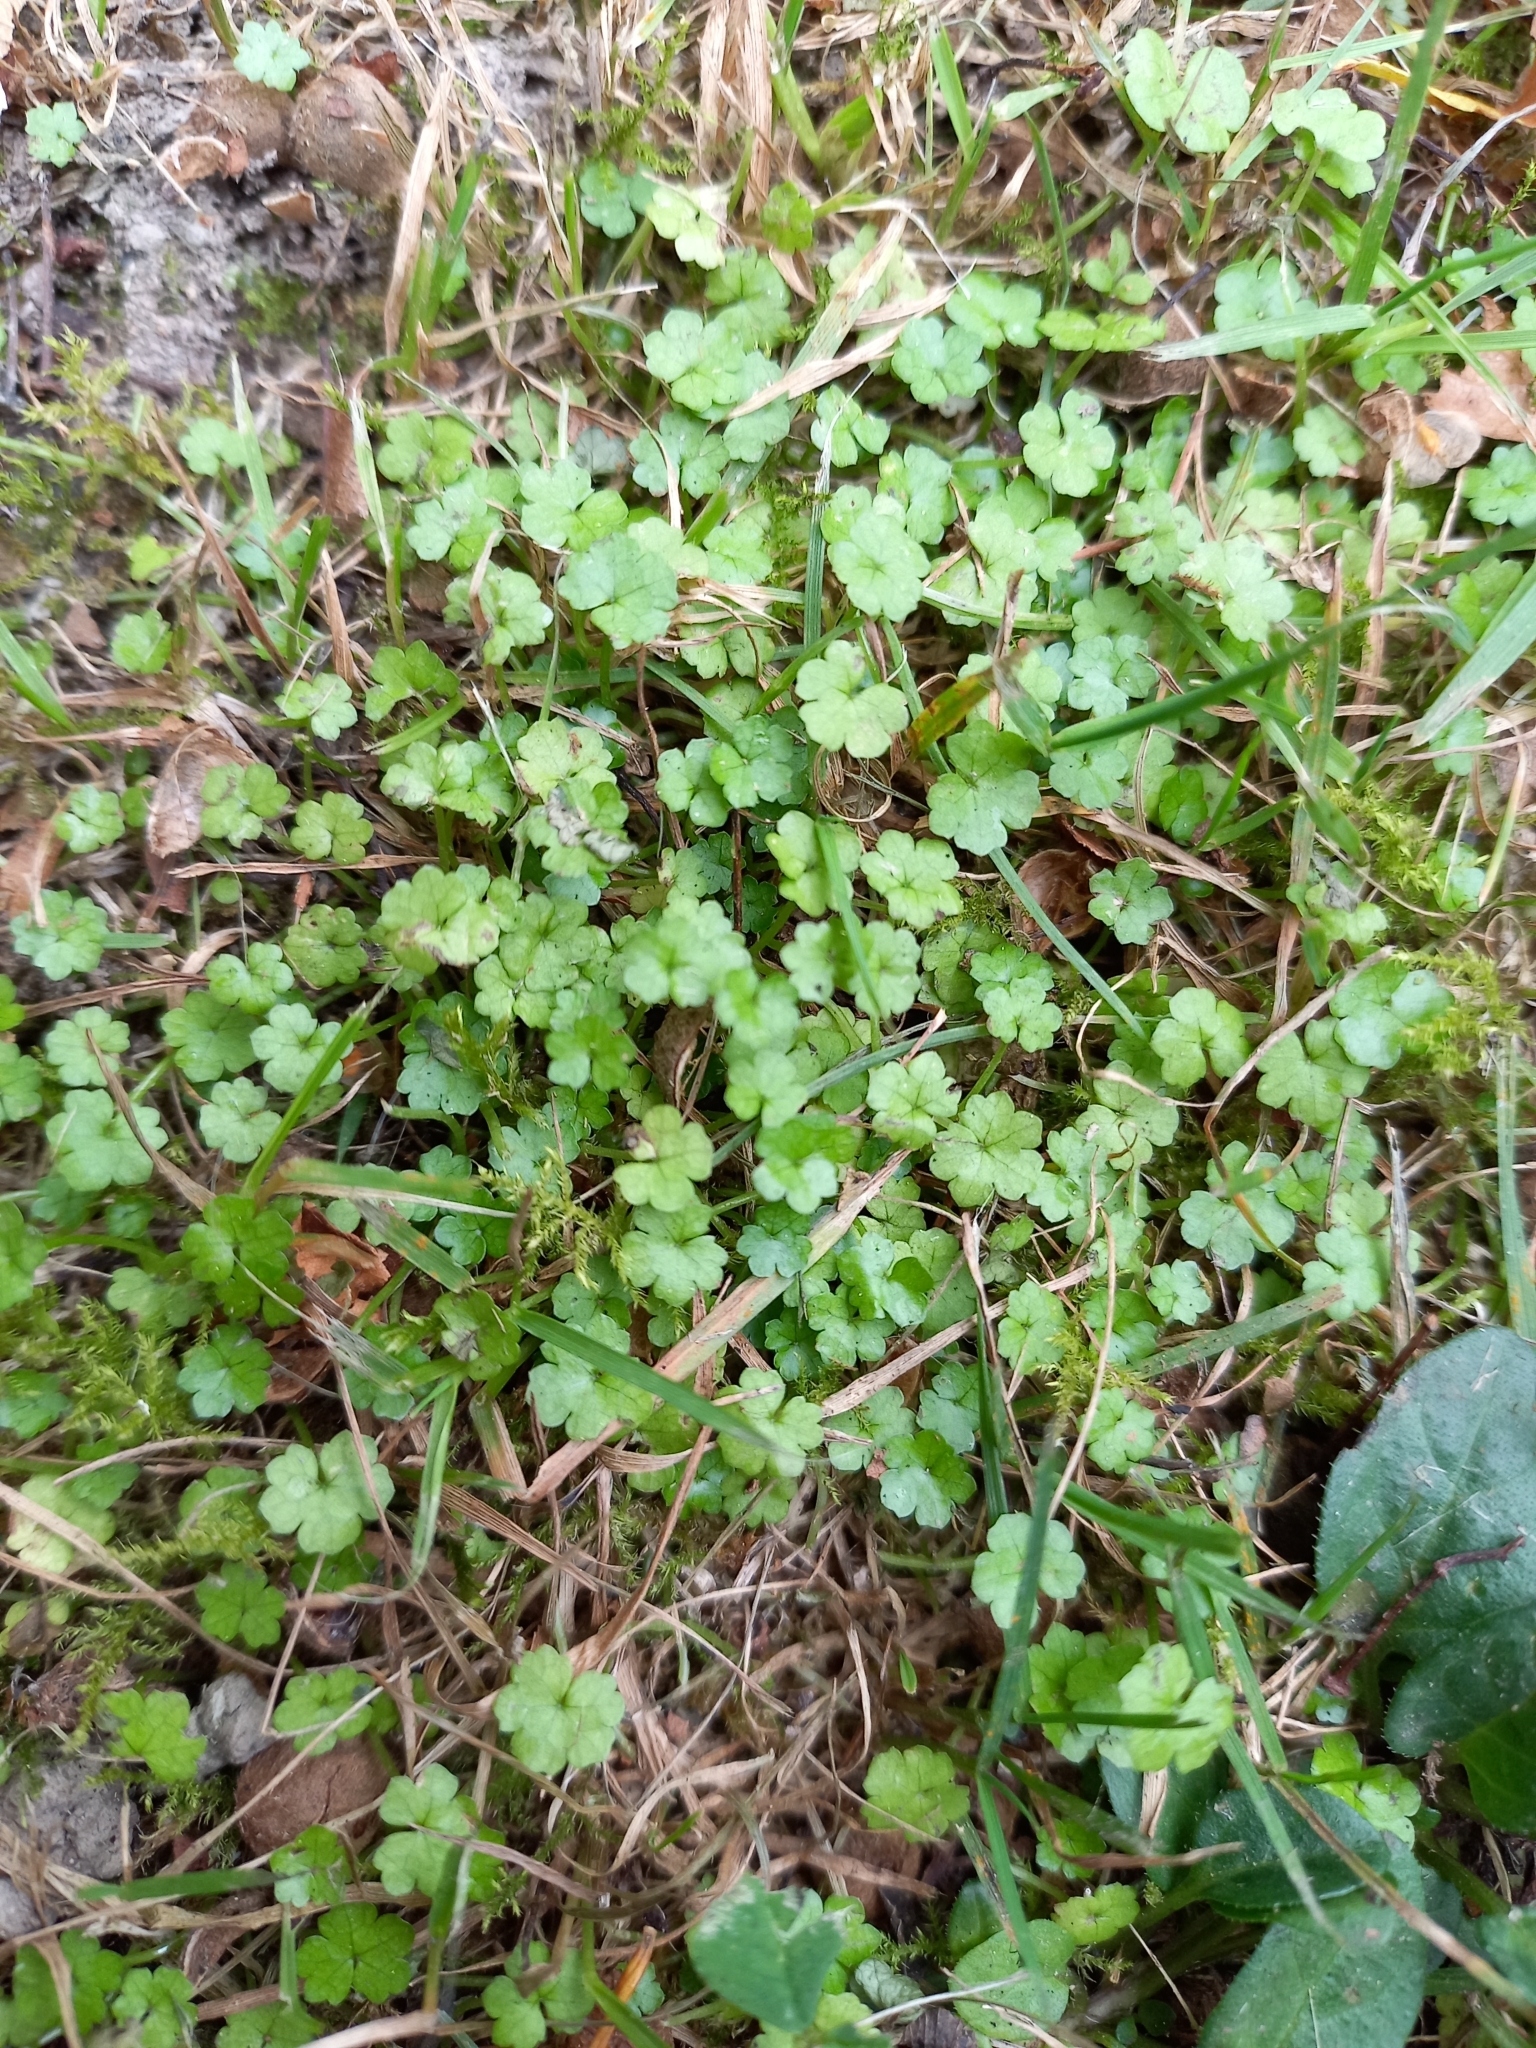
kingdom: Plantae
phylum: Tracheophyta
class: Magnoliopsida
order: Apiales
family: Araliaceae
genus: Hydrocotyle
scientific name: Hydrocotyle heteromeria
